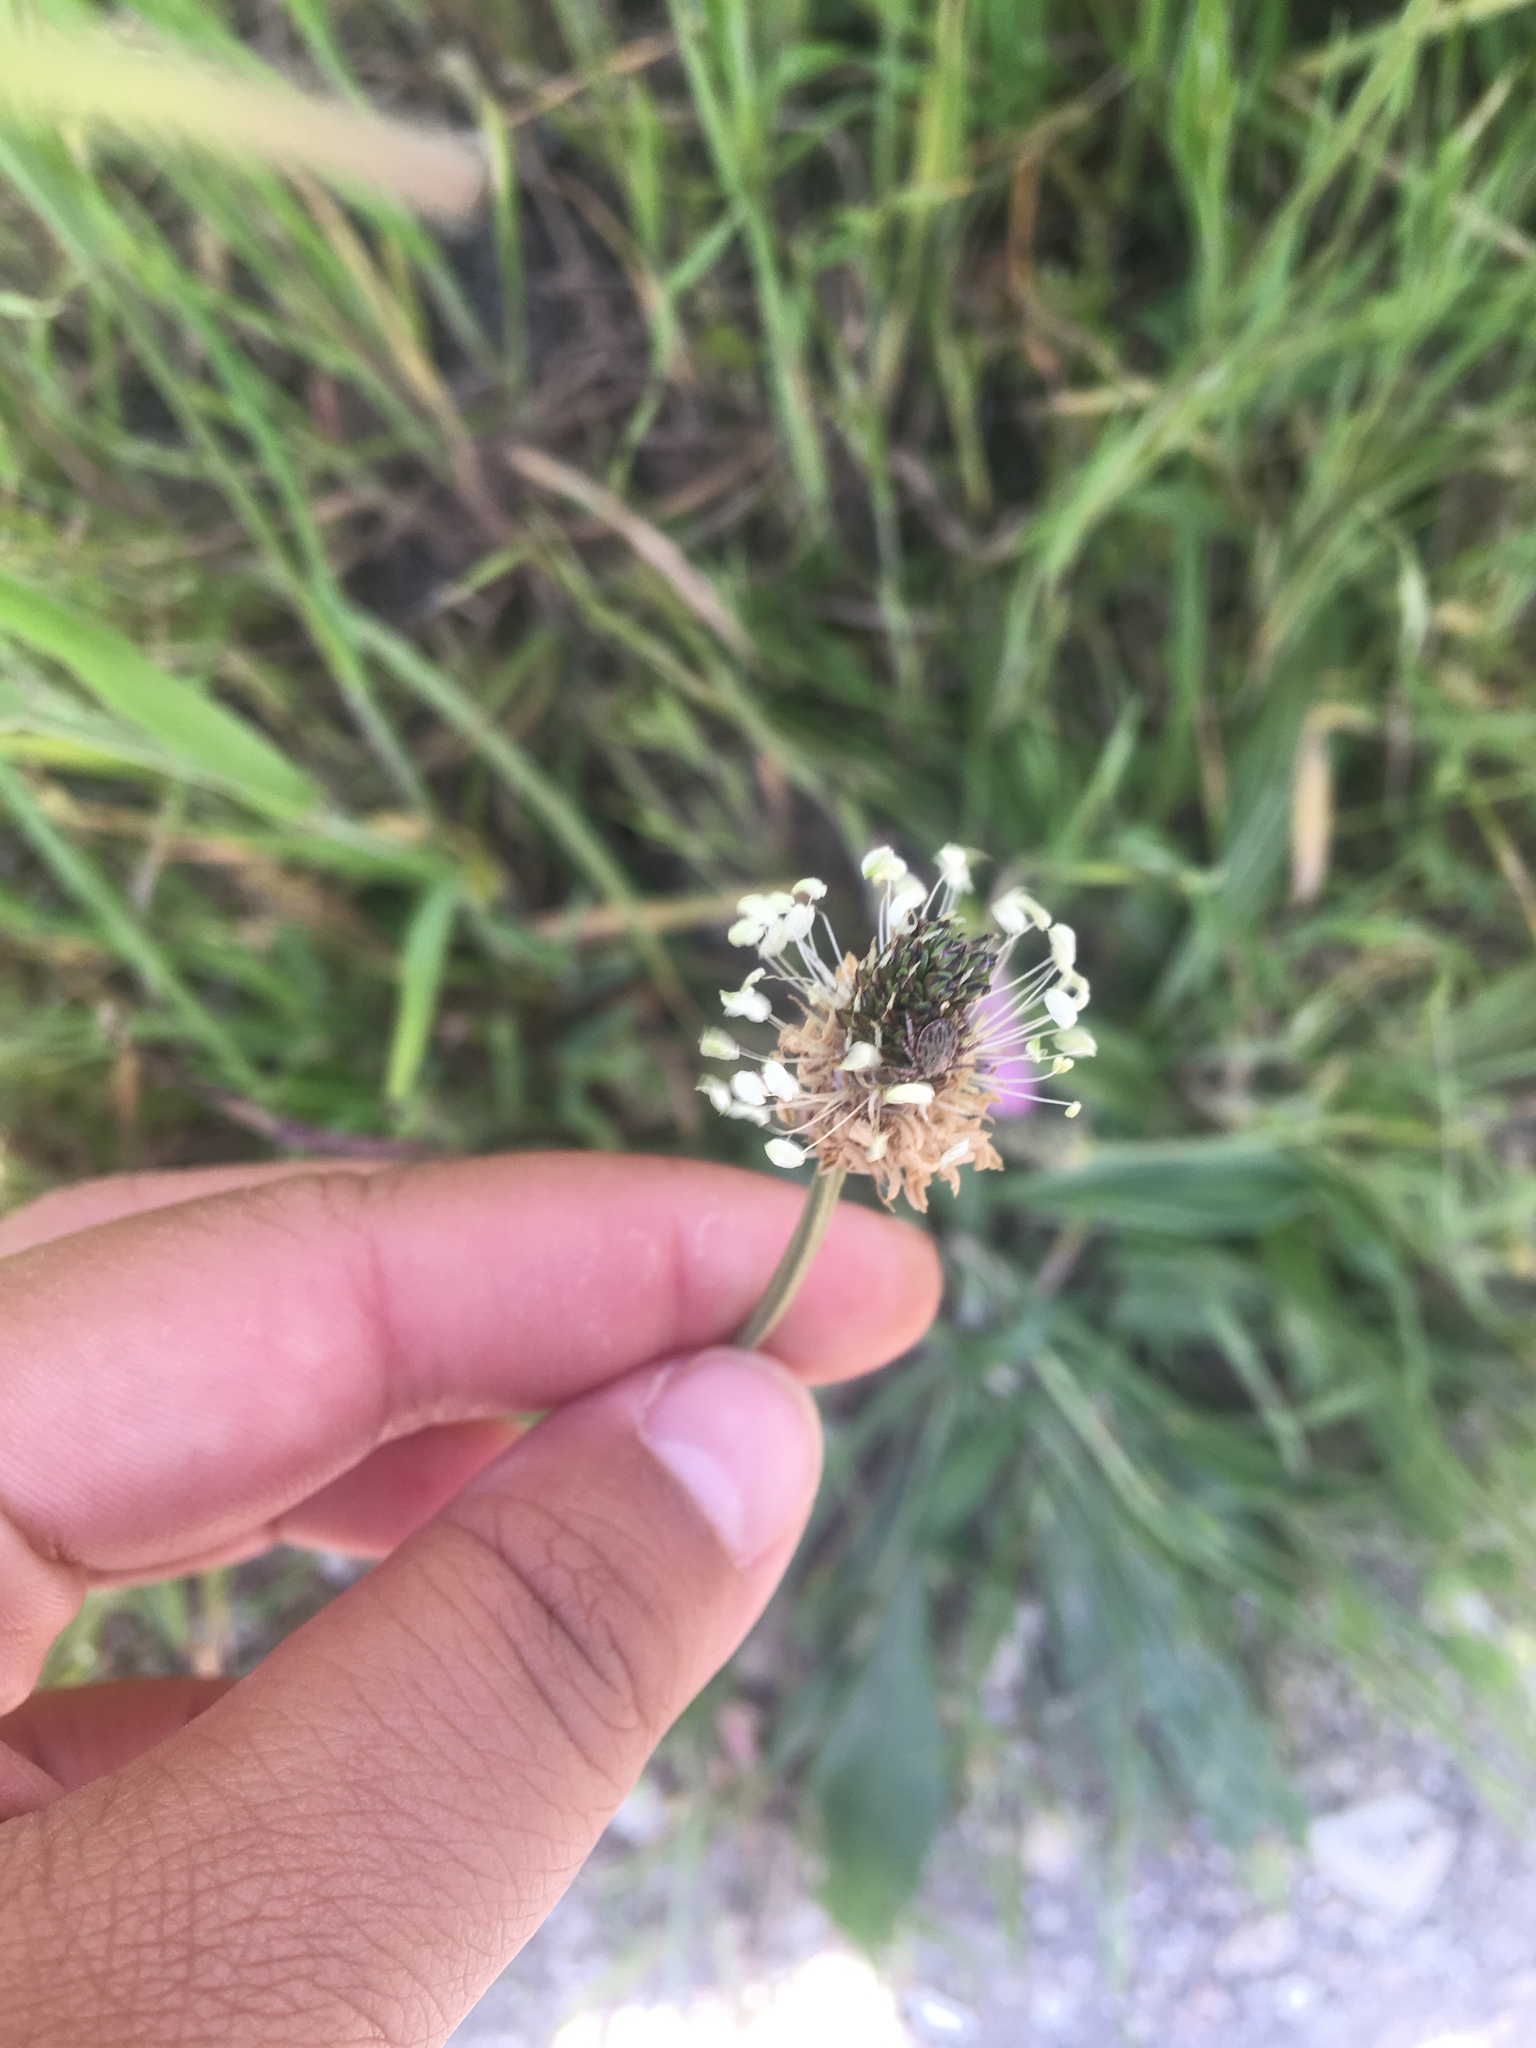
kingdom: Plantae
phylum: Tracheophyta
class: Magnoliopsida
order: Lamiales
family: Plantaginaceae
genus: Plantago
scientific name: Plantago lanceolata
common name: Ribwort plantain
